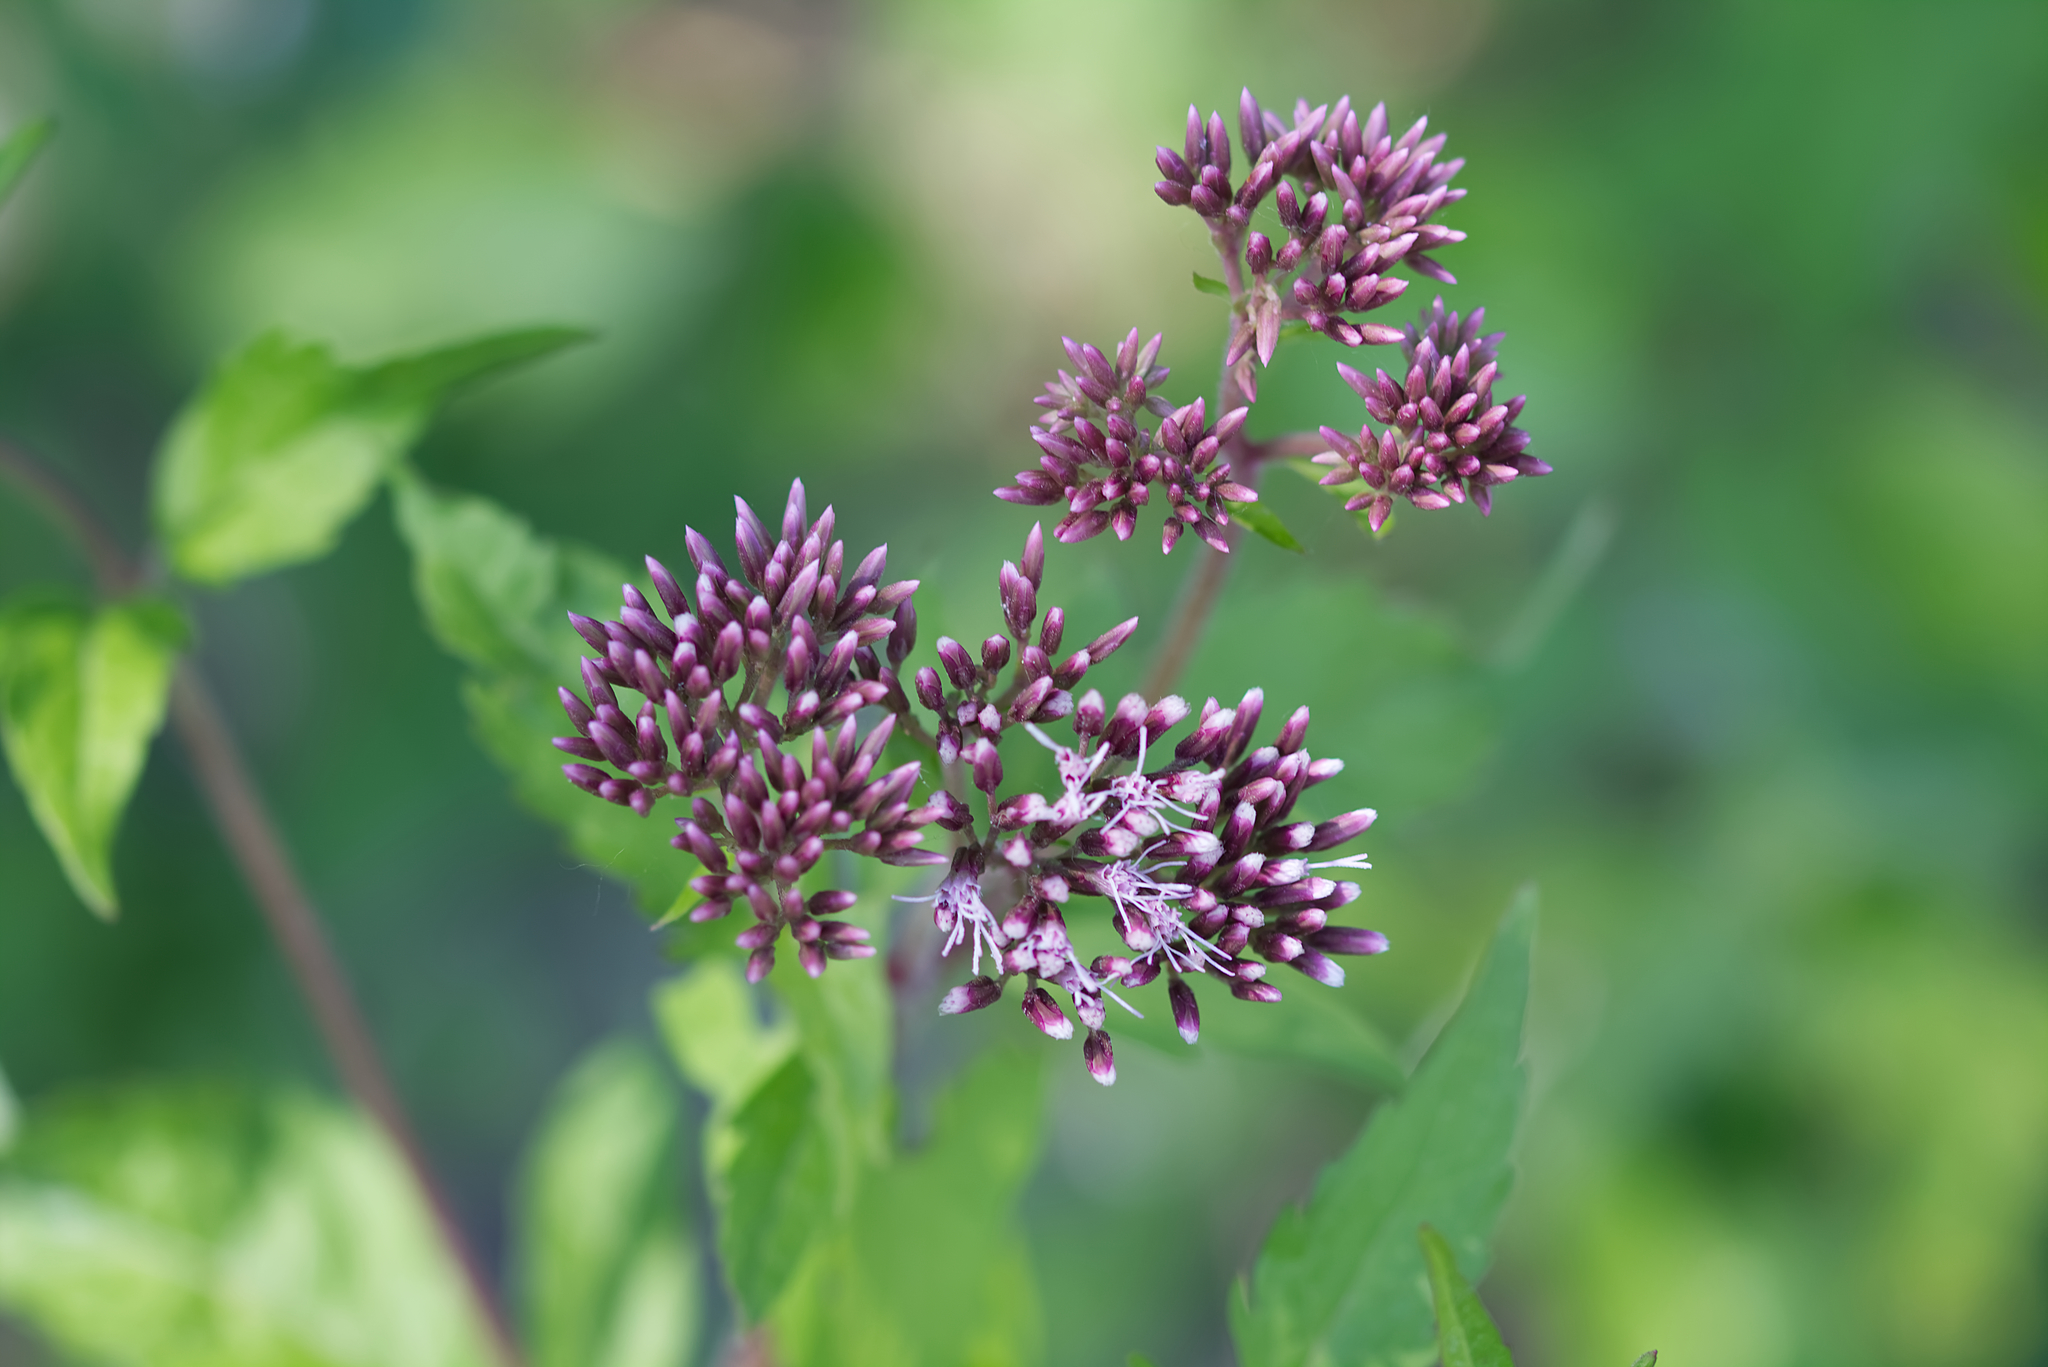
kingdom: Plantae
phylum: Tracheophyta
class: Magnoliopsida
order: Asterales
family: Asteraceae
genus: Eupatorium
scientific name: Eupatorium cannabinum
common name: Hemp-agrimony
